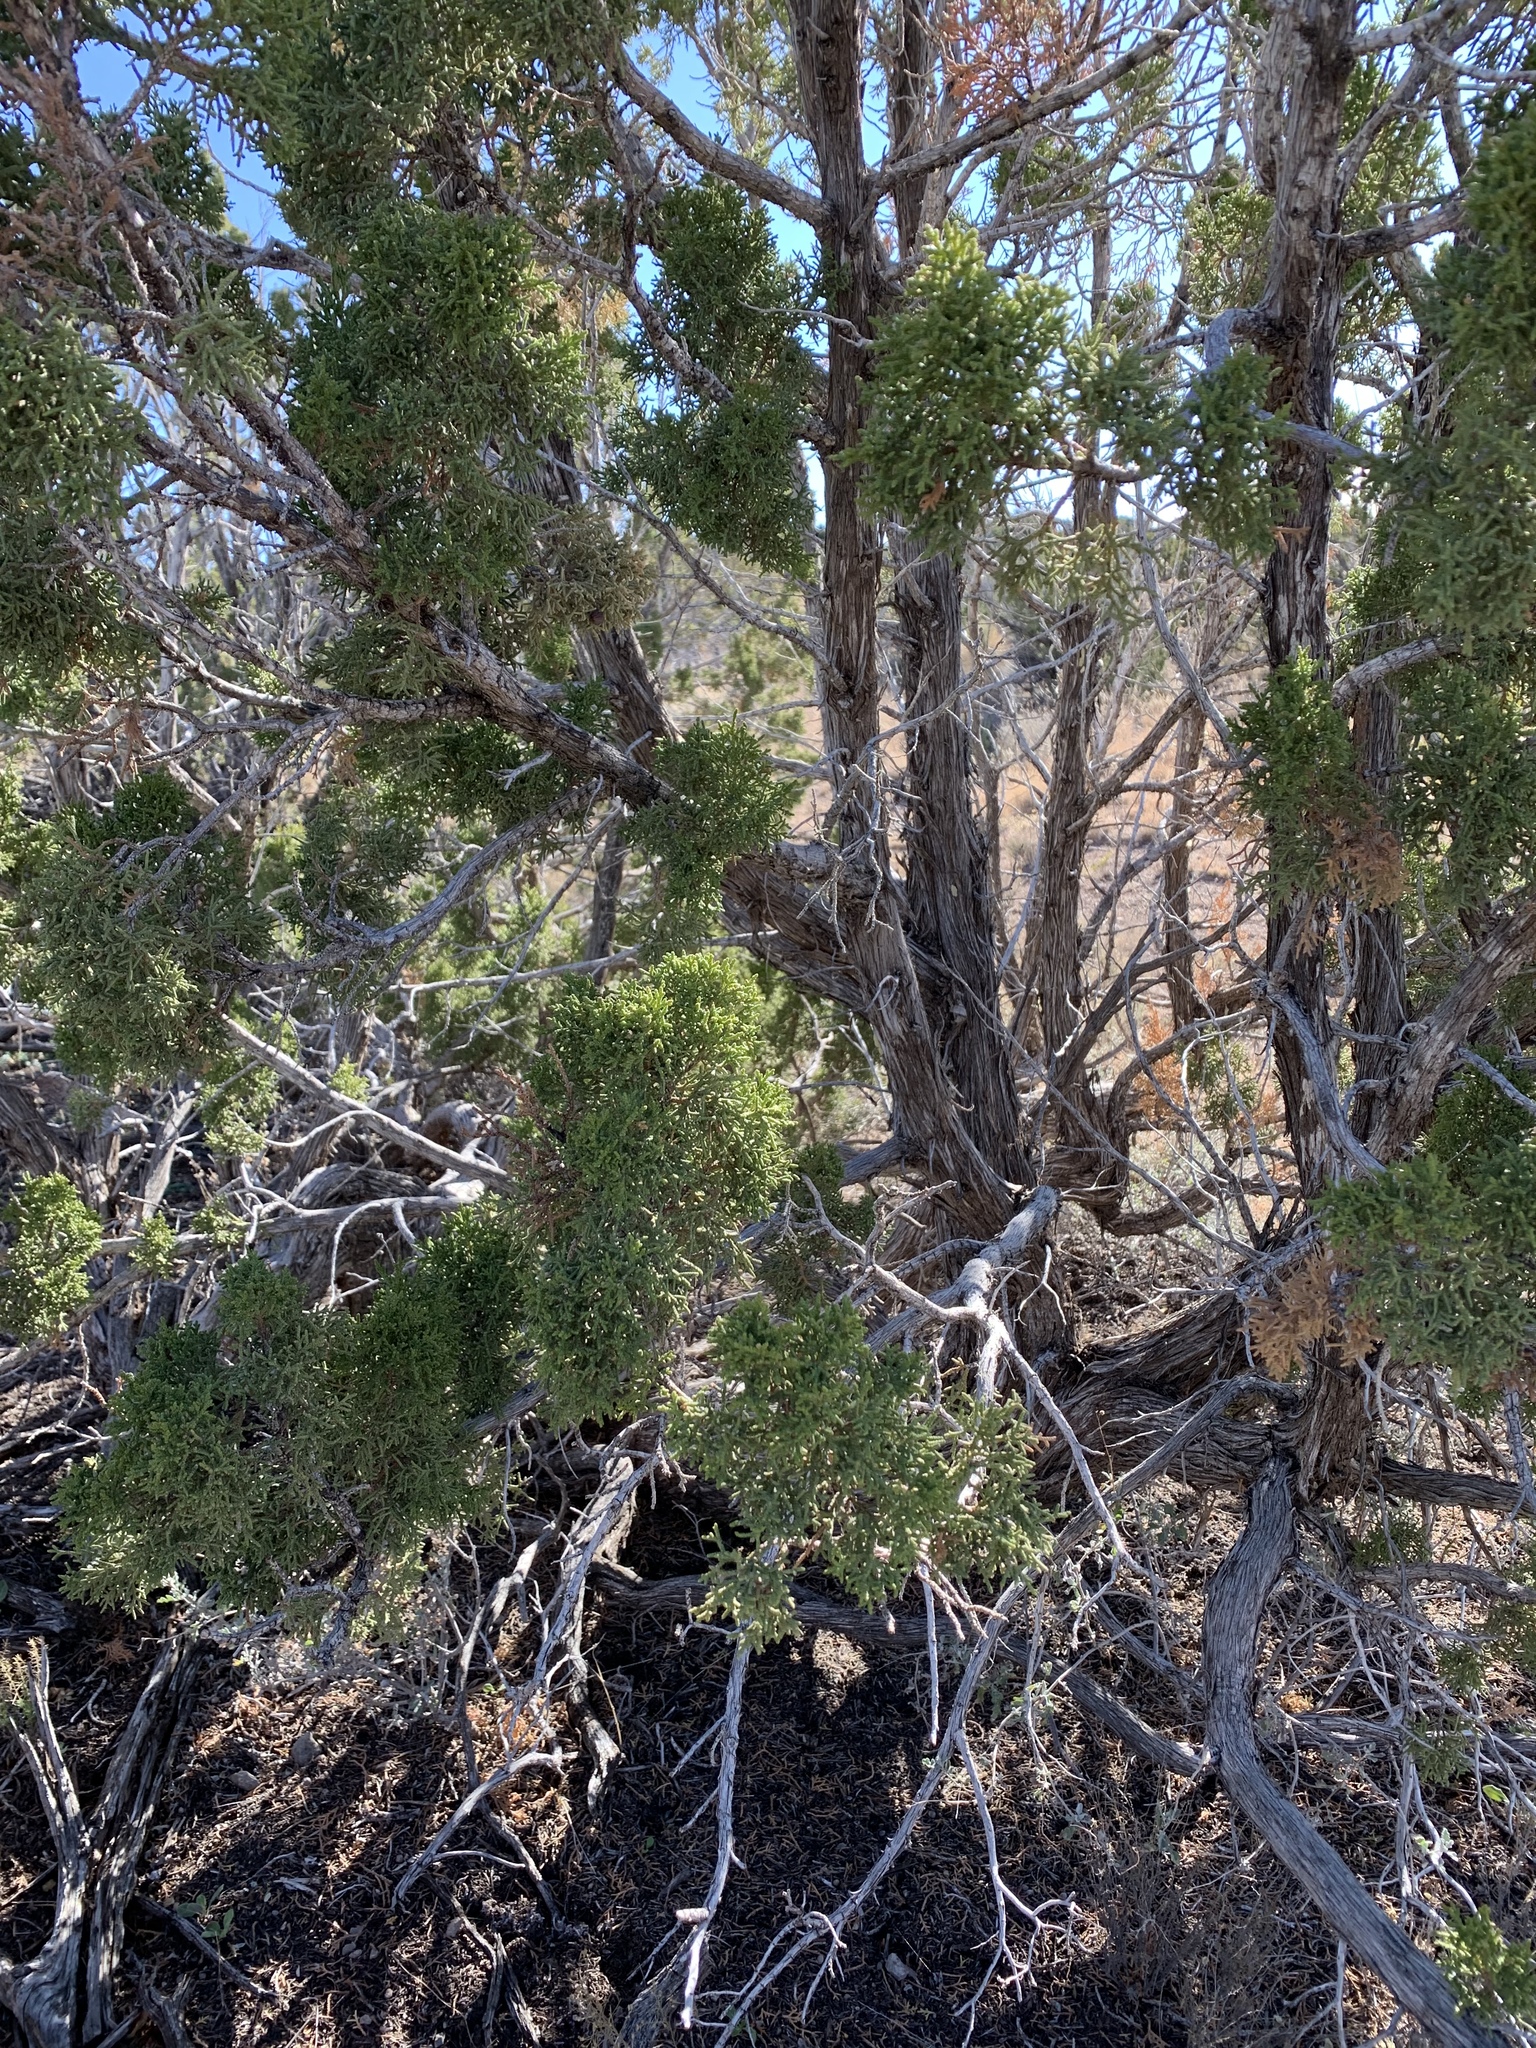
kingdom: Plantae
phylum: Tracheophyta
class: Pinopsida
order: Pinales
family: Cupressaceae
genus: Juniperus
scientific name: Juniperus monosperma
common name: One-seed juniper
